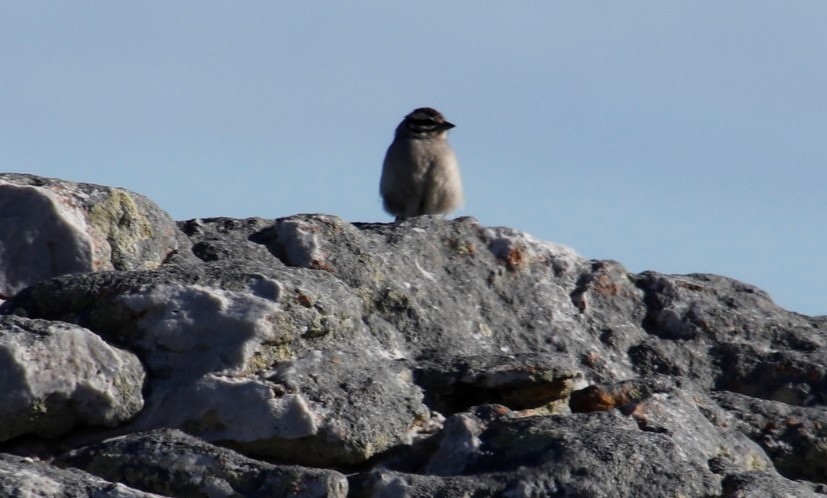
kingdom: Animalia
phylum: Chordata
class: Aves
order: Passeriformes
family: Emberizidae
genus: Emberiza
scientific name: Emberiza capensis
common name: Cape bunting
